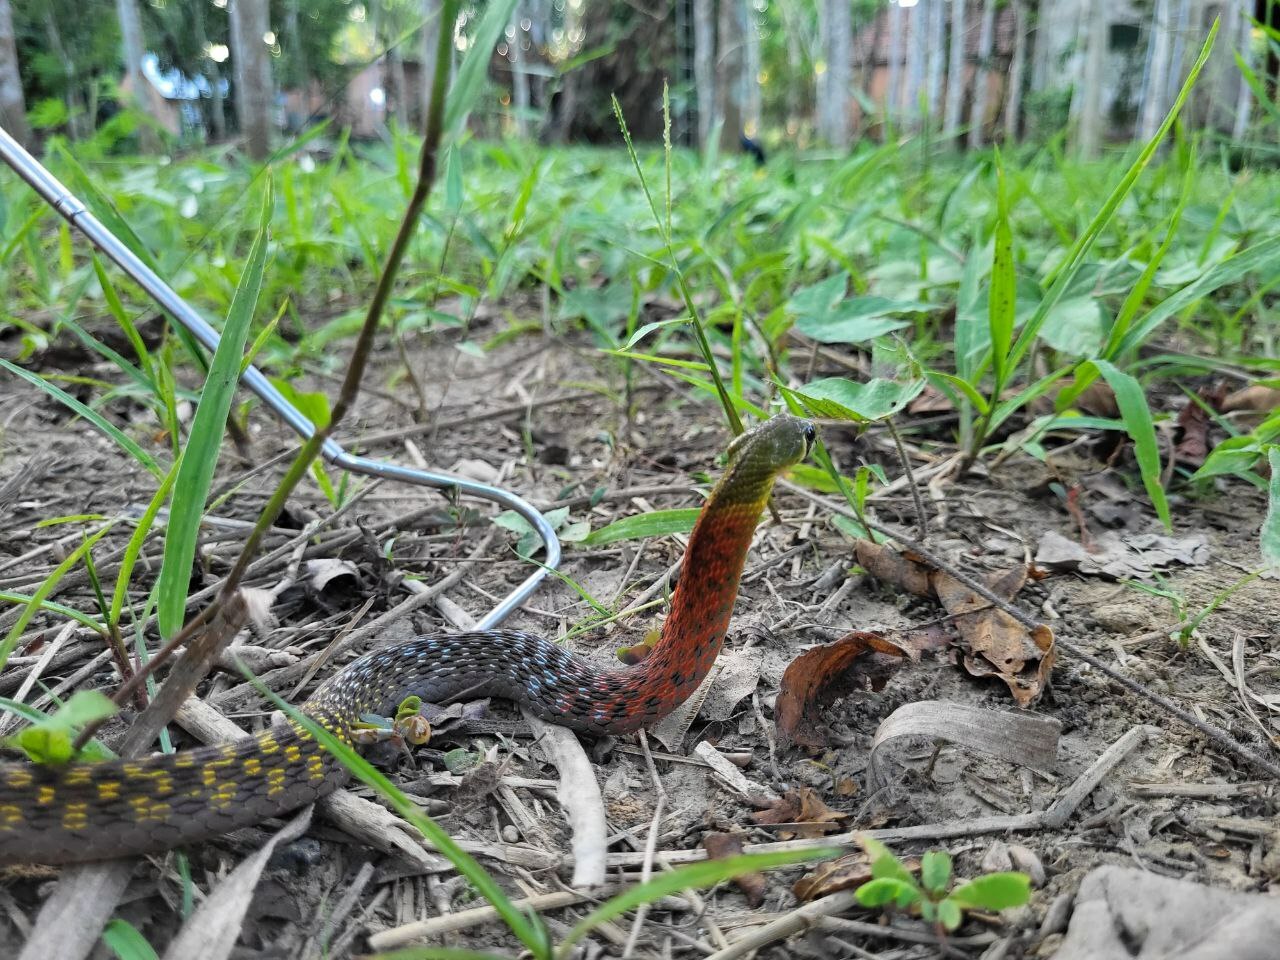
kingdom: Animalia
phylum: Chordata
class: Squamata
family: Colubridae
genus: Rhabdophis
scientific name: Rhabdophis
